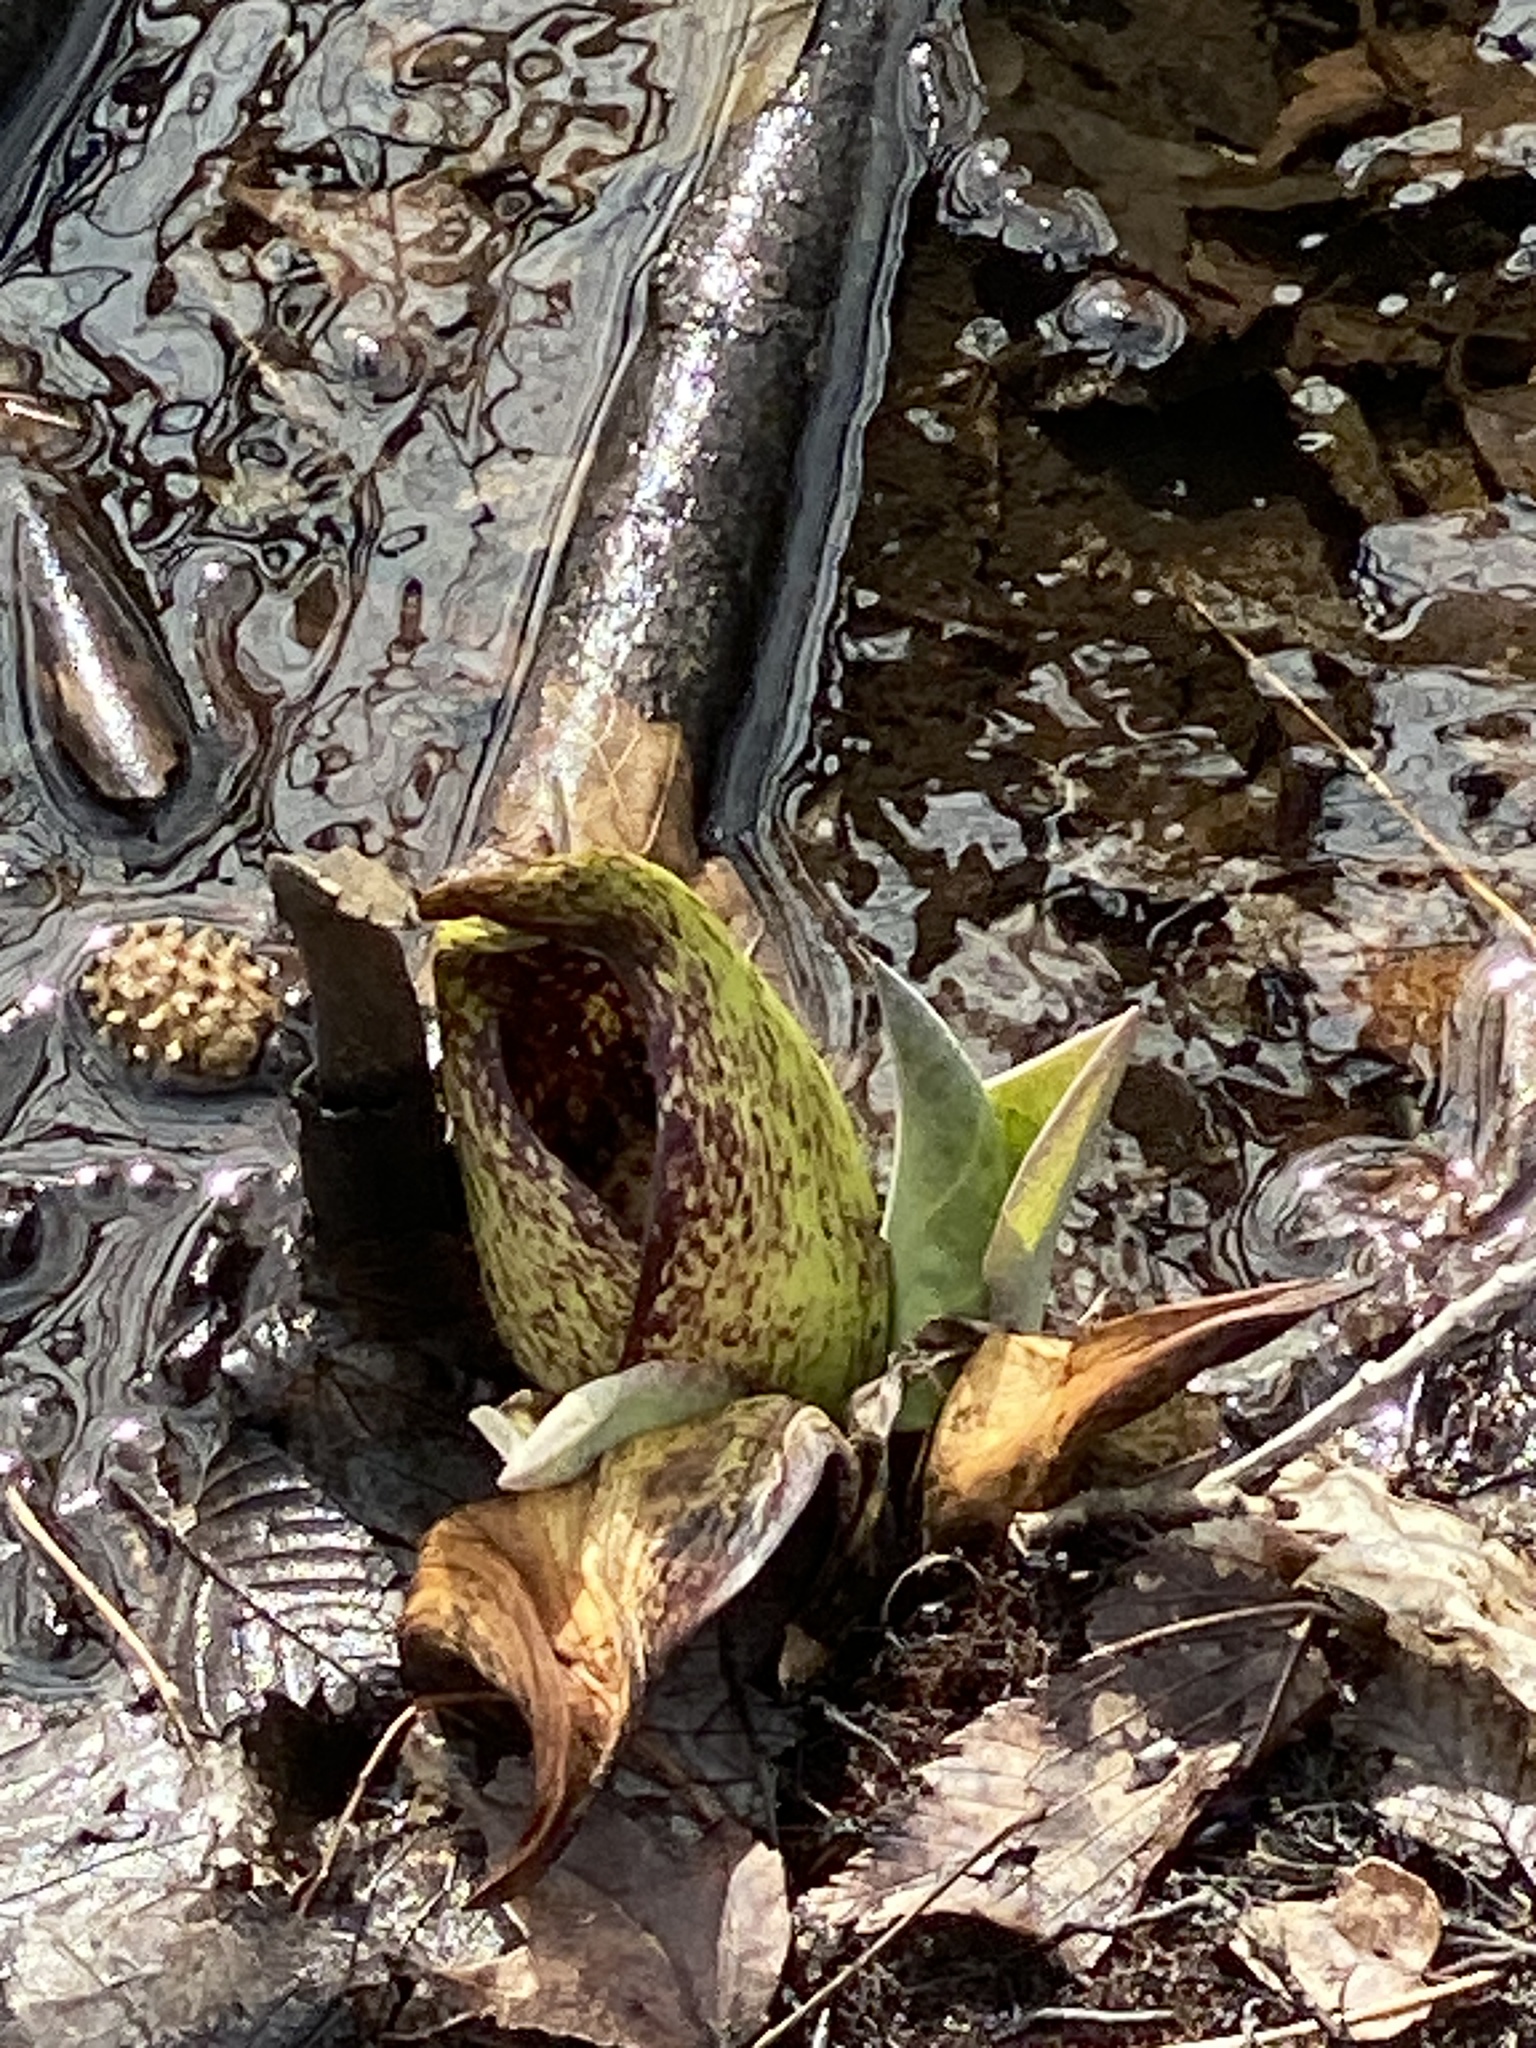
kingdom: Plantae
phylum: Tracheophyta
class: Liliopsida
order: Alismatales
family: Araceae
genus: Symplocarpus
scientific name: Symplocarpus foetidus
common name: Eastern skunk cabbage
